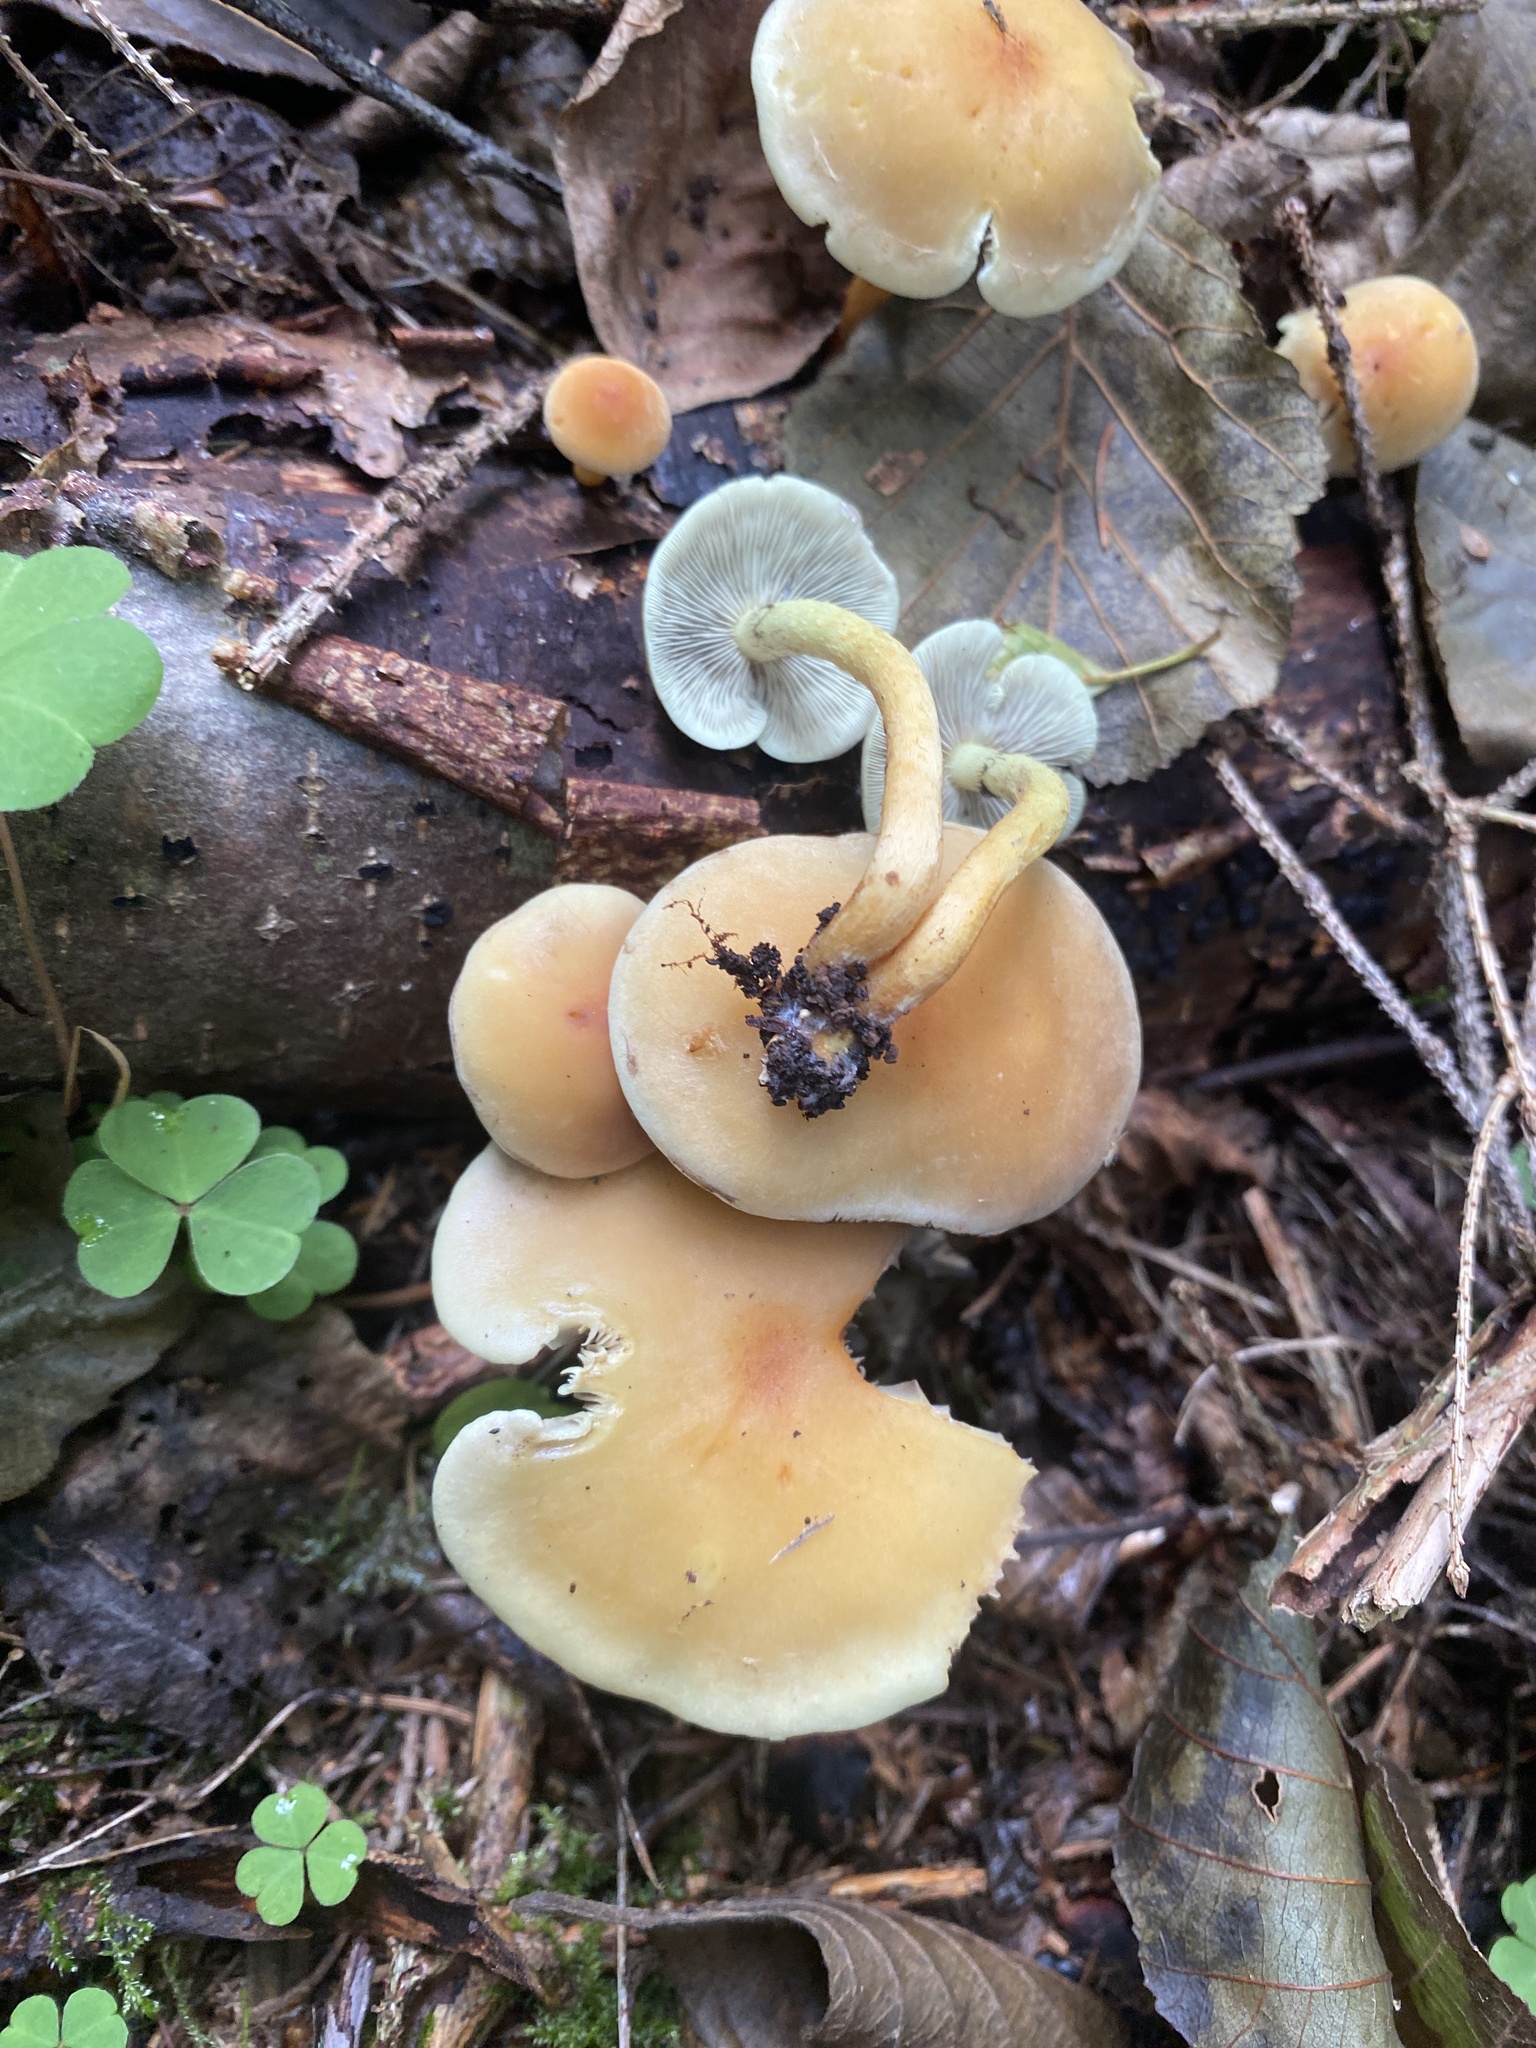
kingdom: Fungi
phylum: Basidiomycota
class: Agaricomycetes
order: Agaricales
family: Strophariaceae
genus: Hypholoma
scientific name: Hypholoma fasciculare
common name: Sulphur tuft
